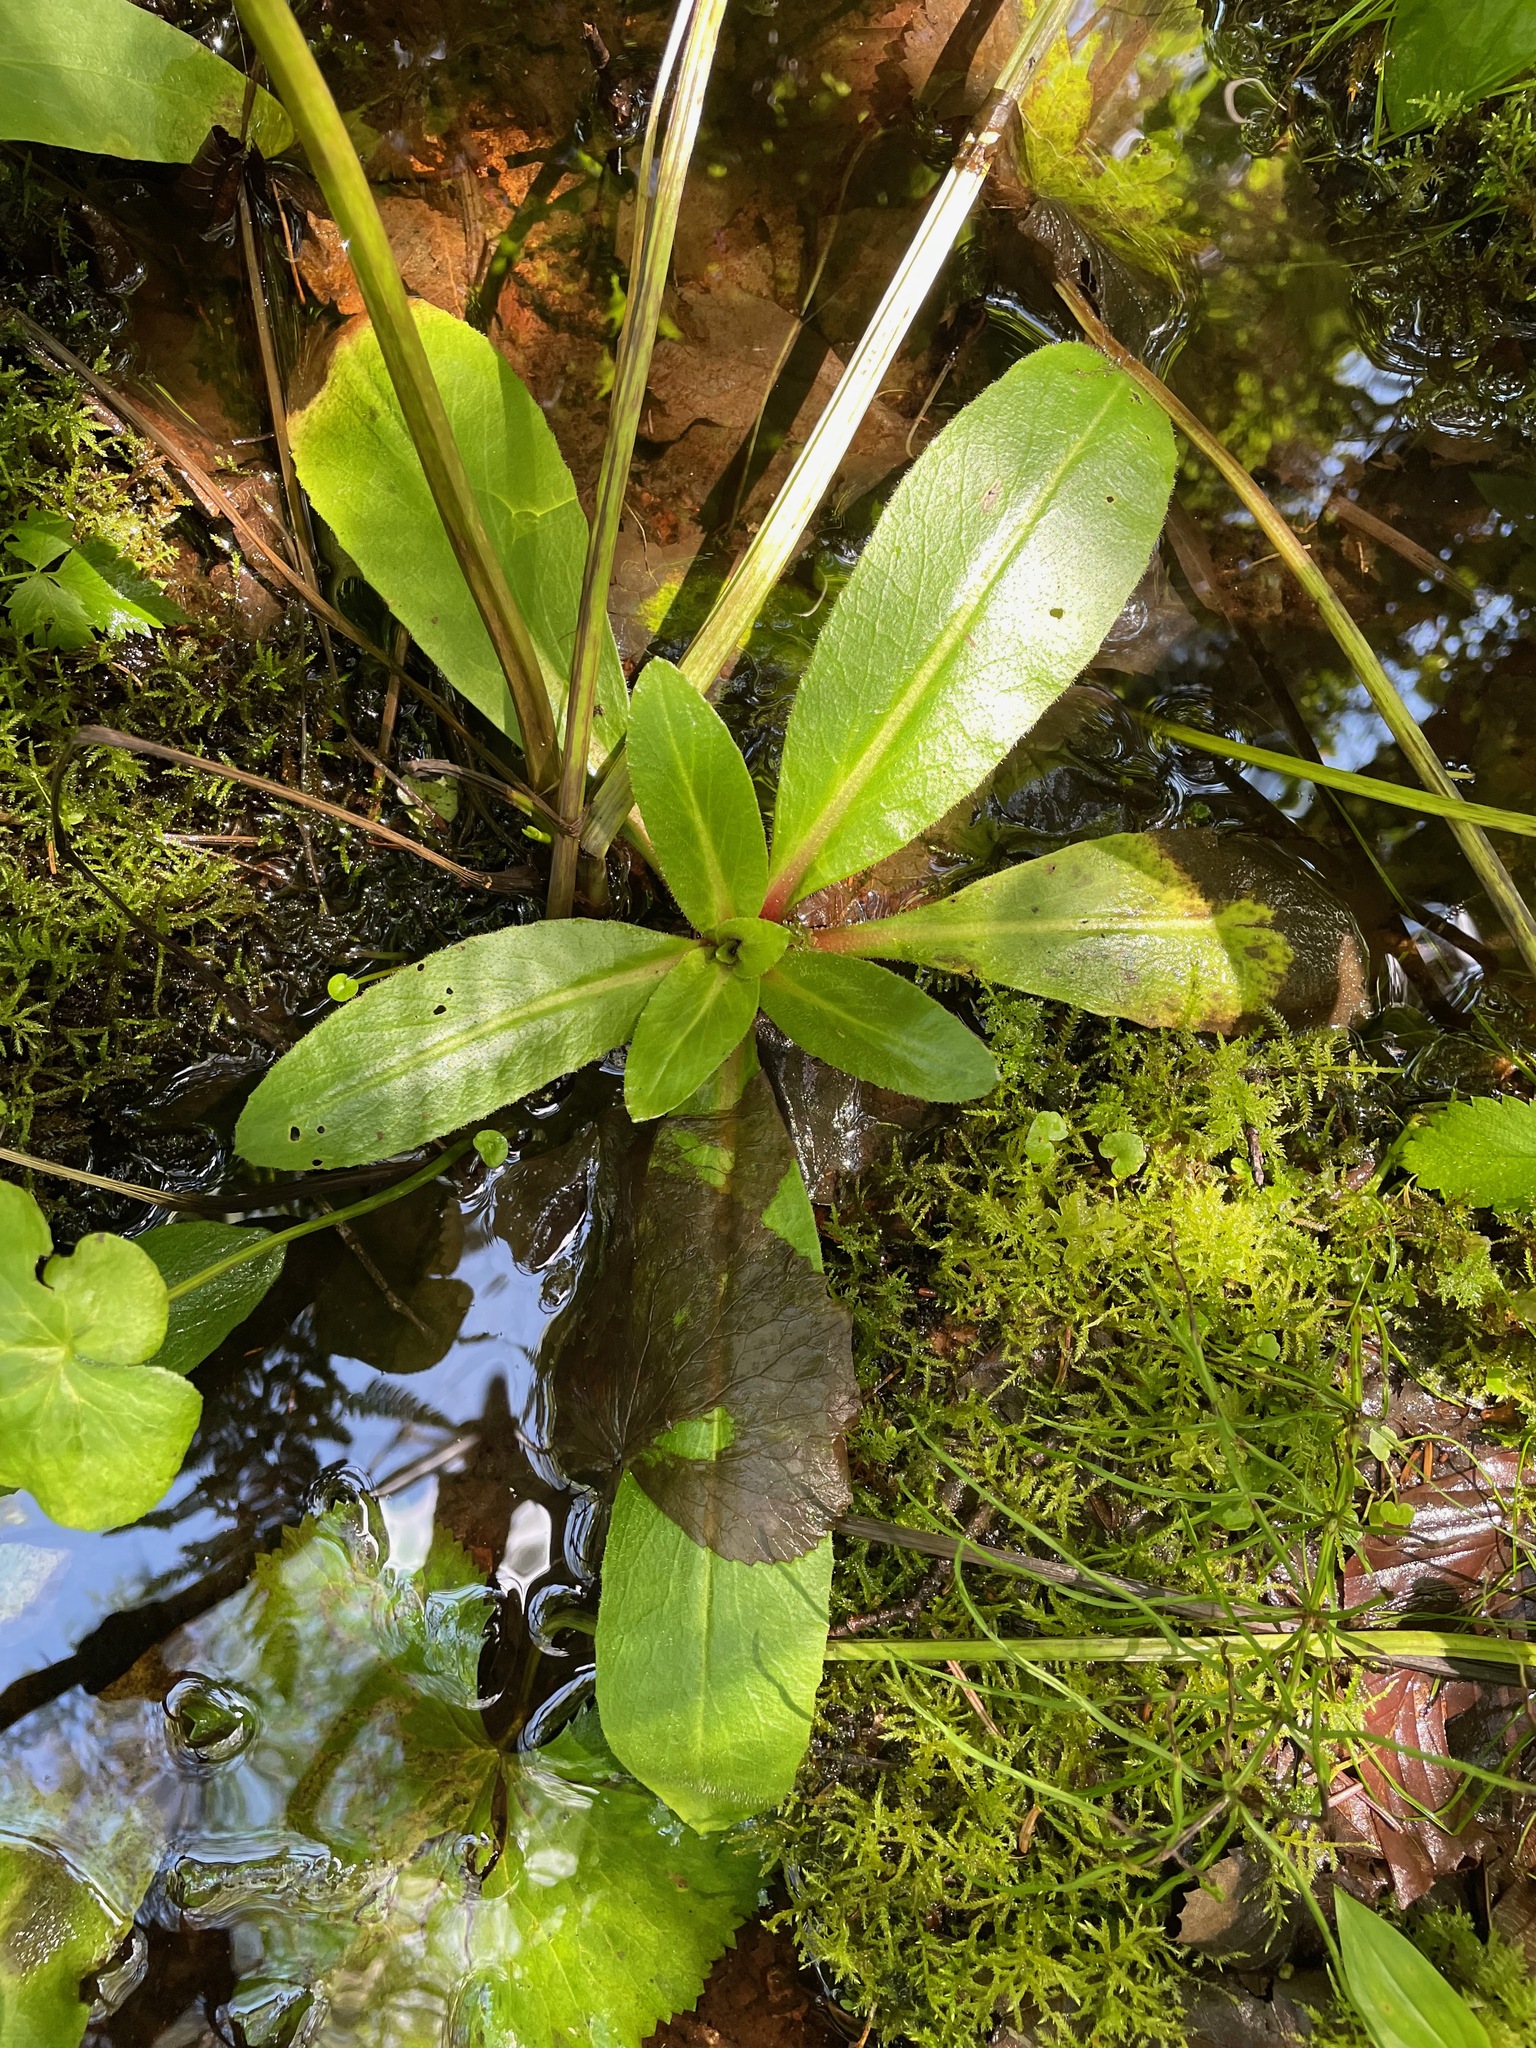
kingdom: Plantae
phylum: Tracheophyta
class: Magnoliopsida
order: Saxifragales
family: Saxifragaceae
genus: Micranthes
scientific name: Micranthes pensylvanica
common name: Marsh saxifrage
